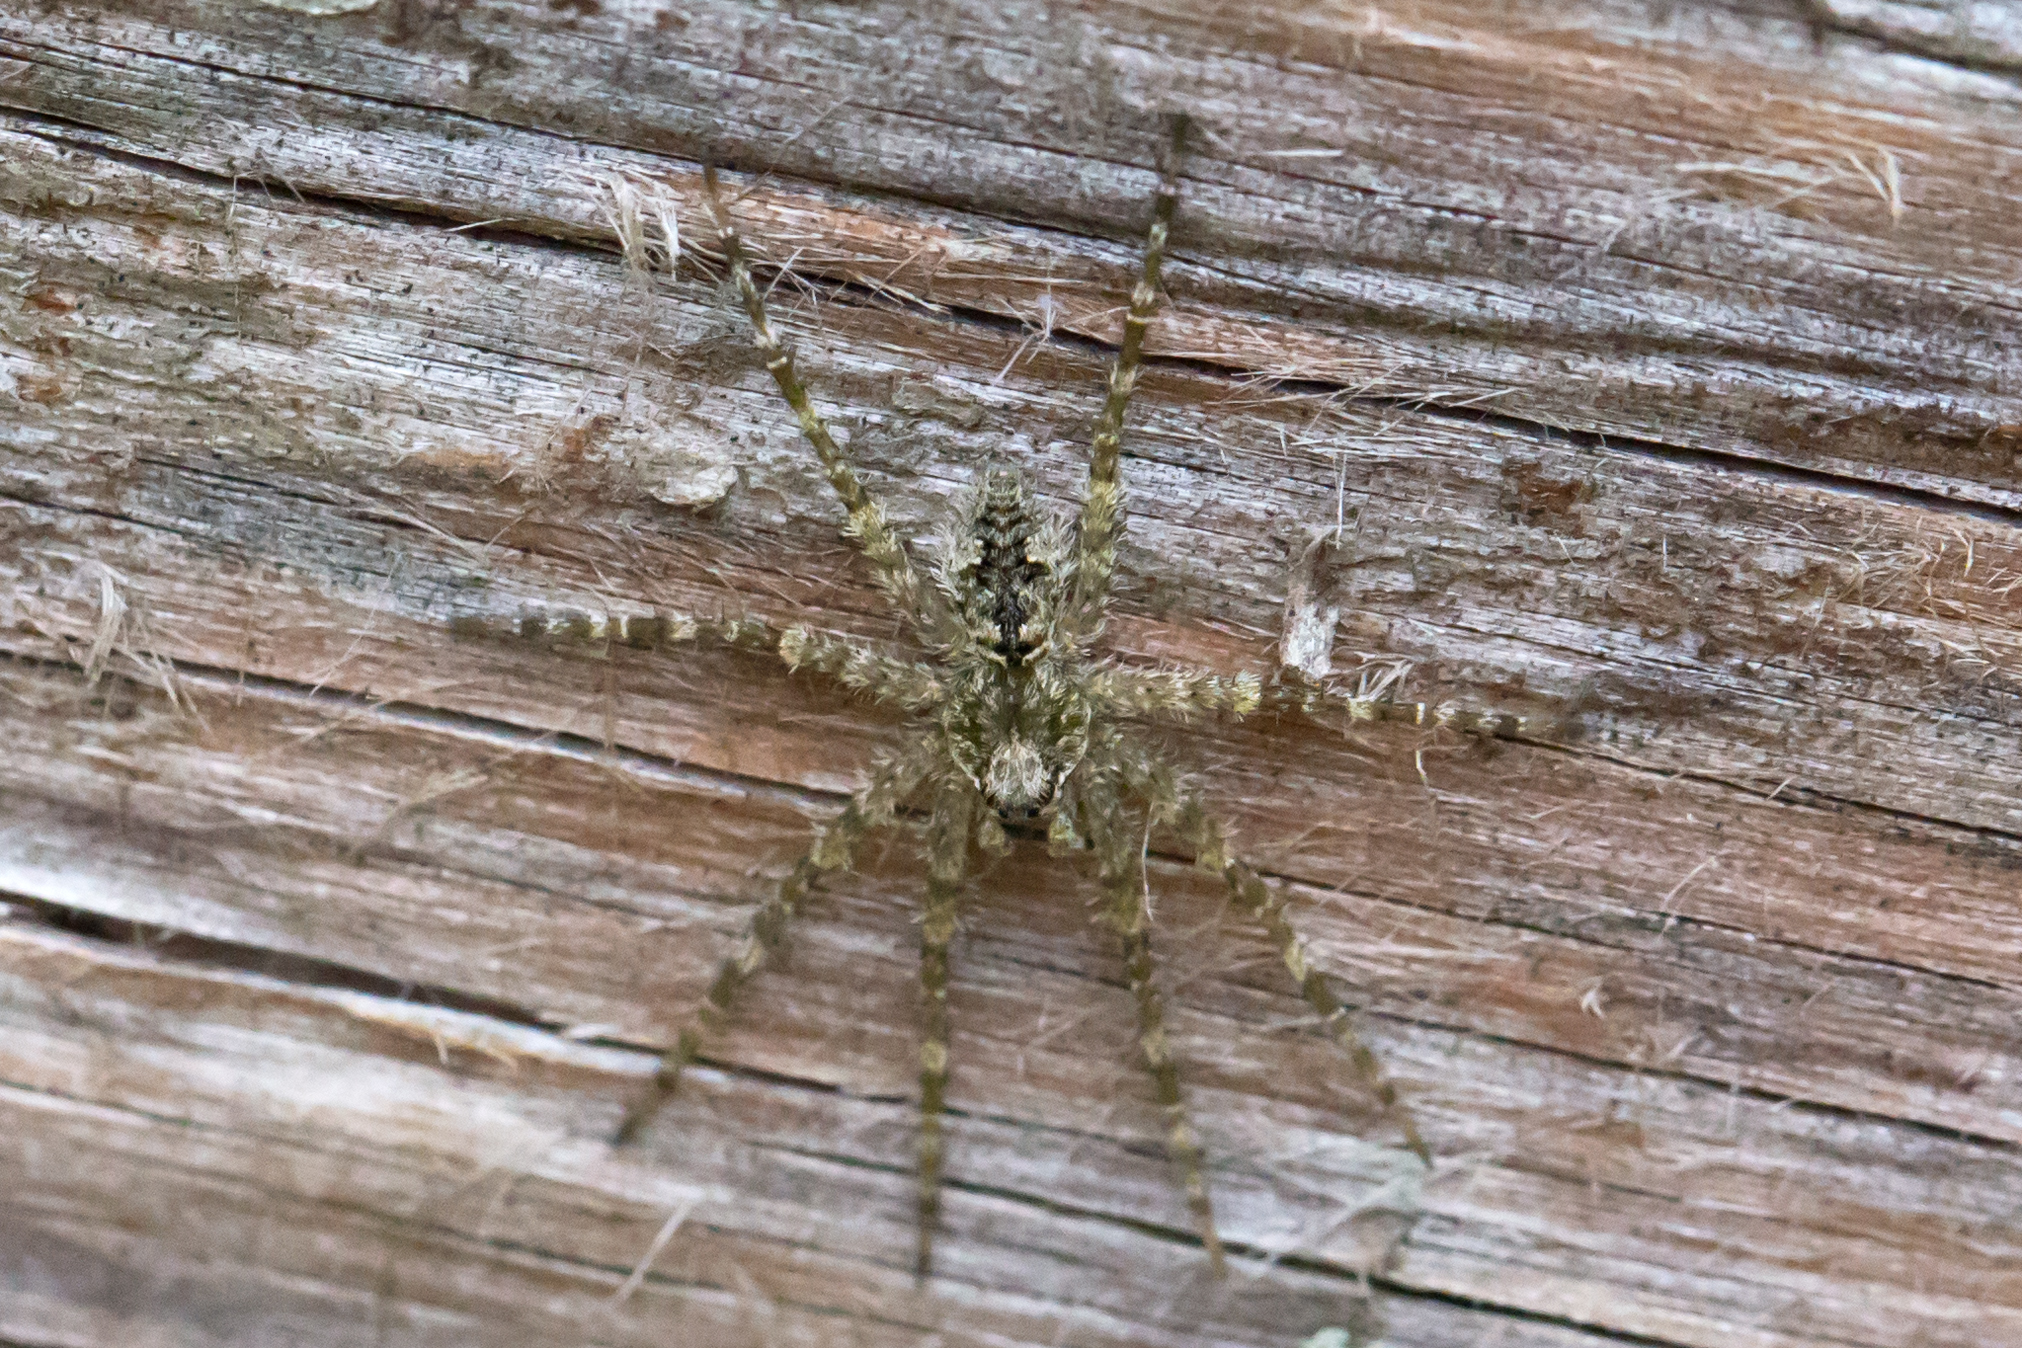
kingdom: Animalia
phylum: Arthropoda
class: Arachnida
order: Araneae
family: Pisauridae
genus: Dolomedes
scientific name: Dolomedes albineus
